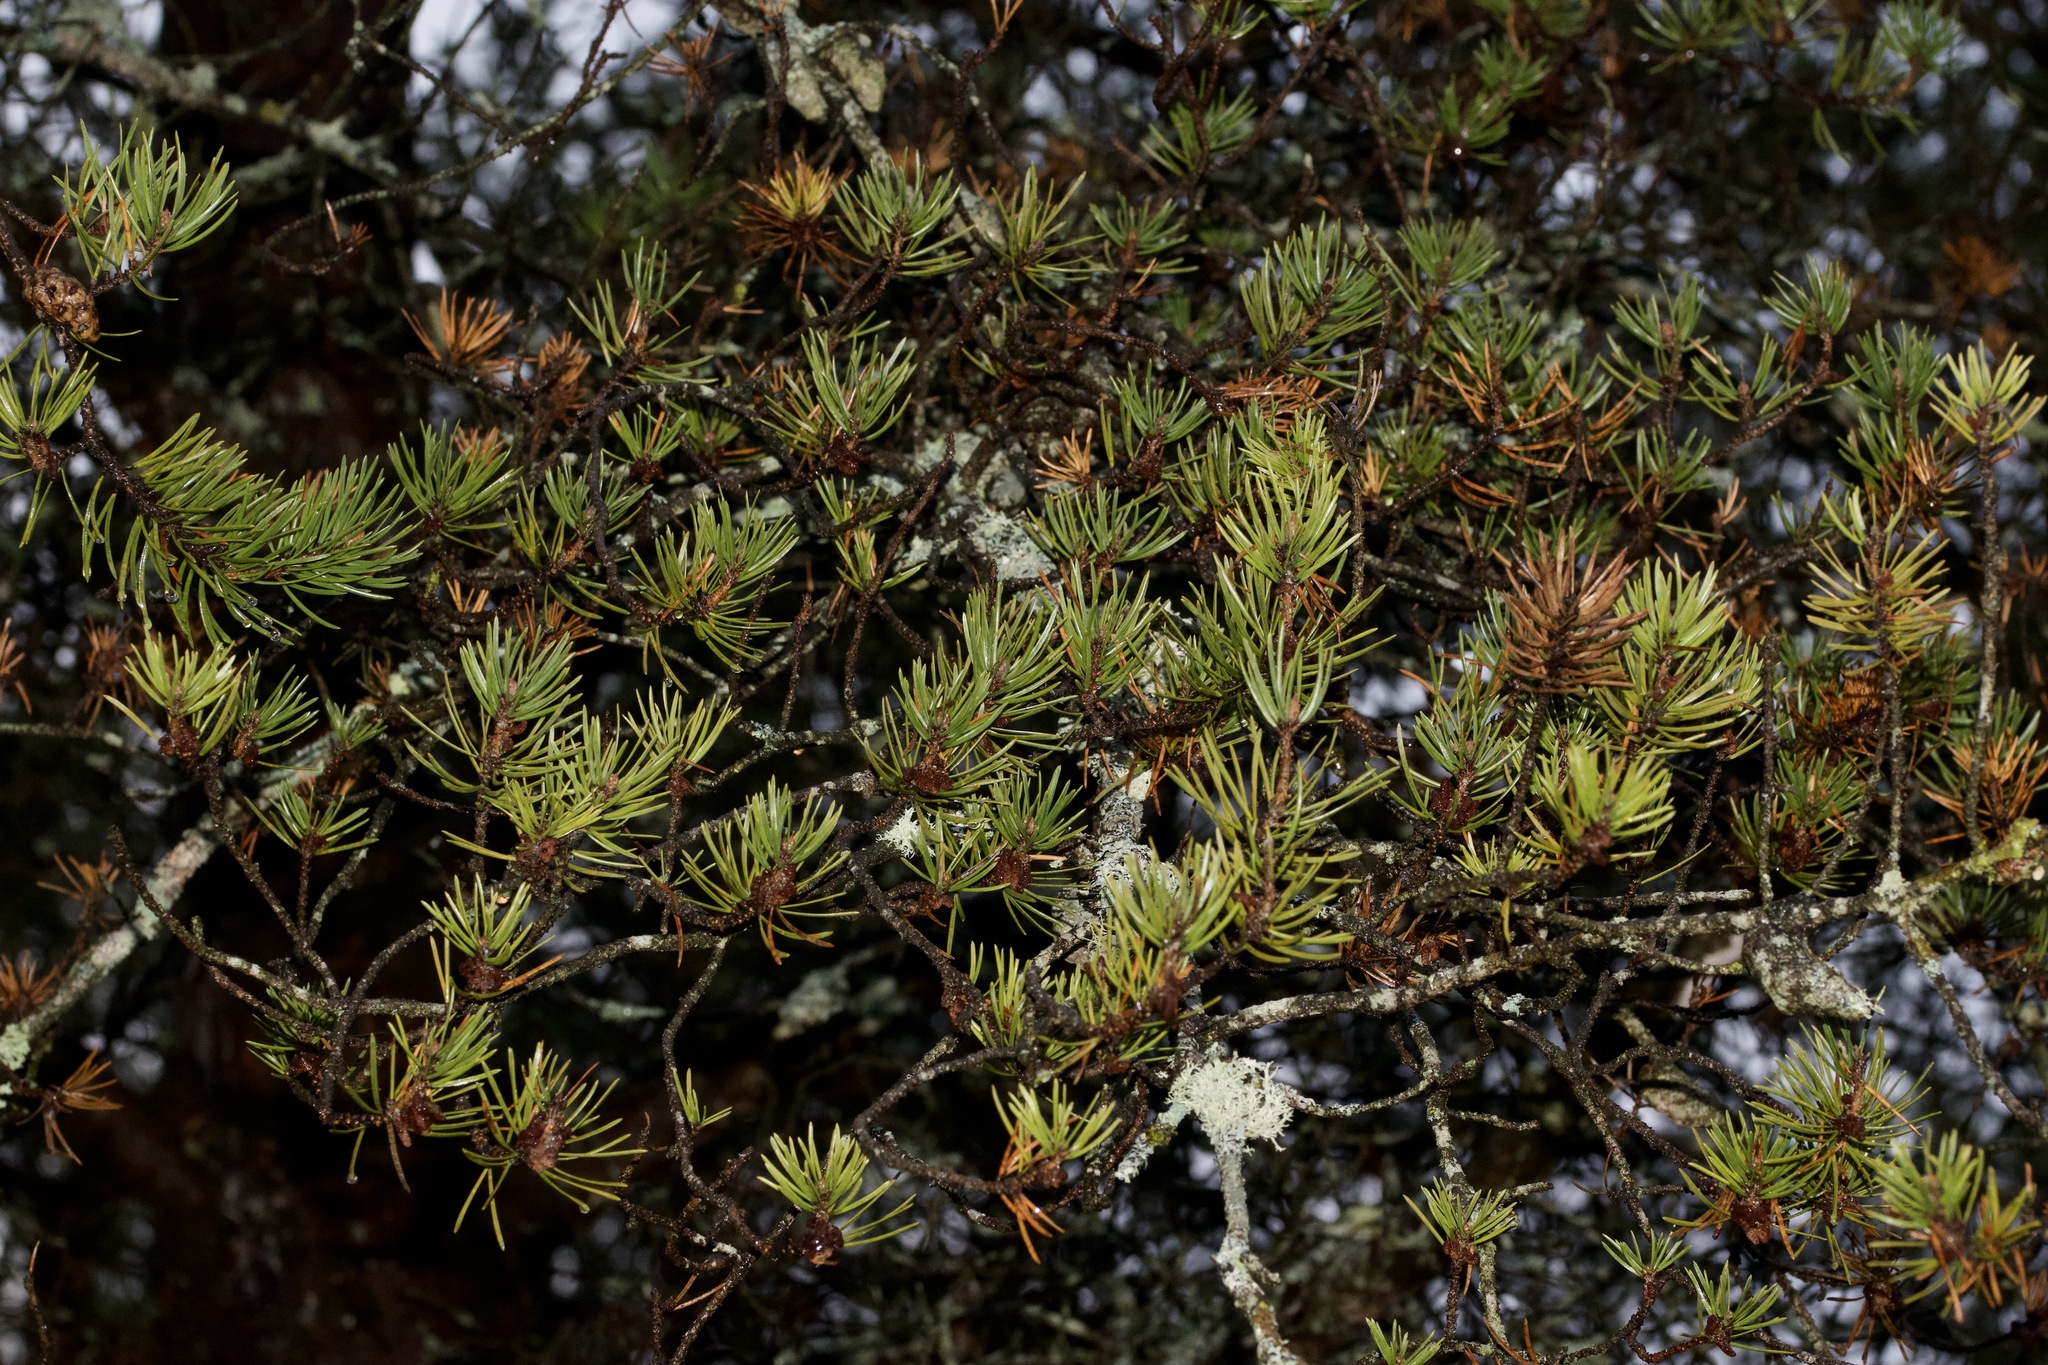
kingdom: Plantae
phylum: Tracheophyta
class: Pinopsida
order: Pinales
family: Pinaceae
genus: Pinus
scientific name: Pinus banksiana
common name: Jack pine
